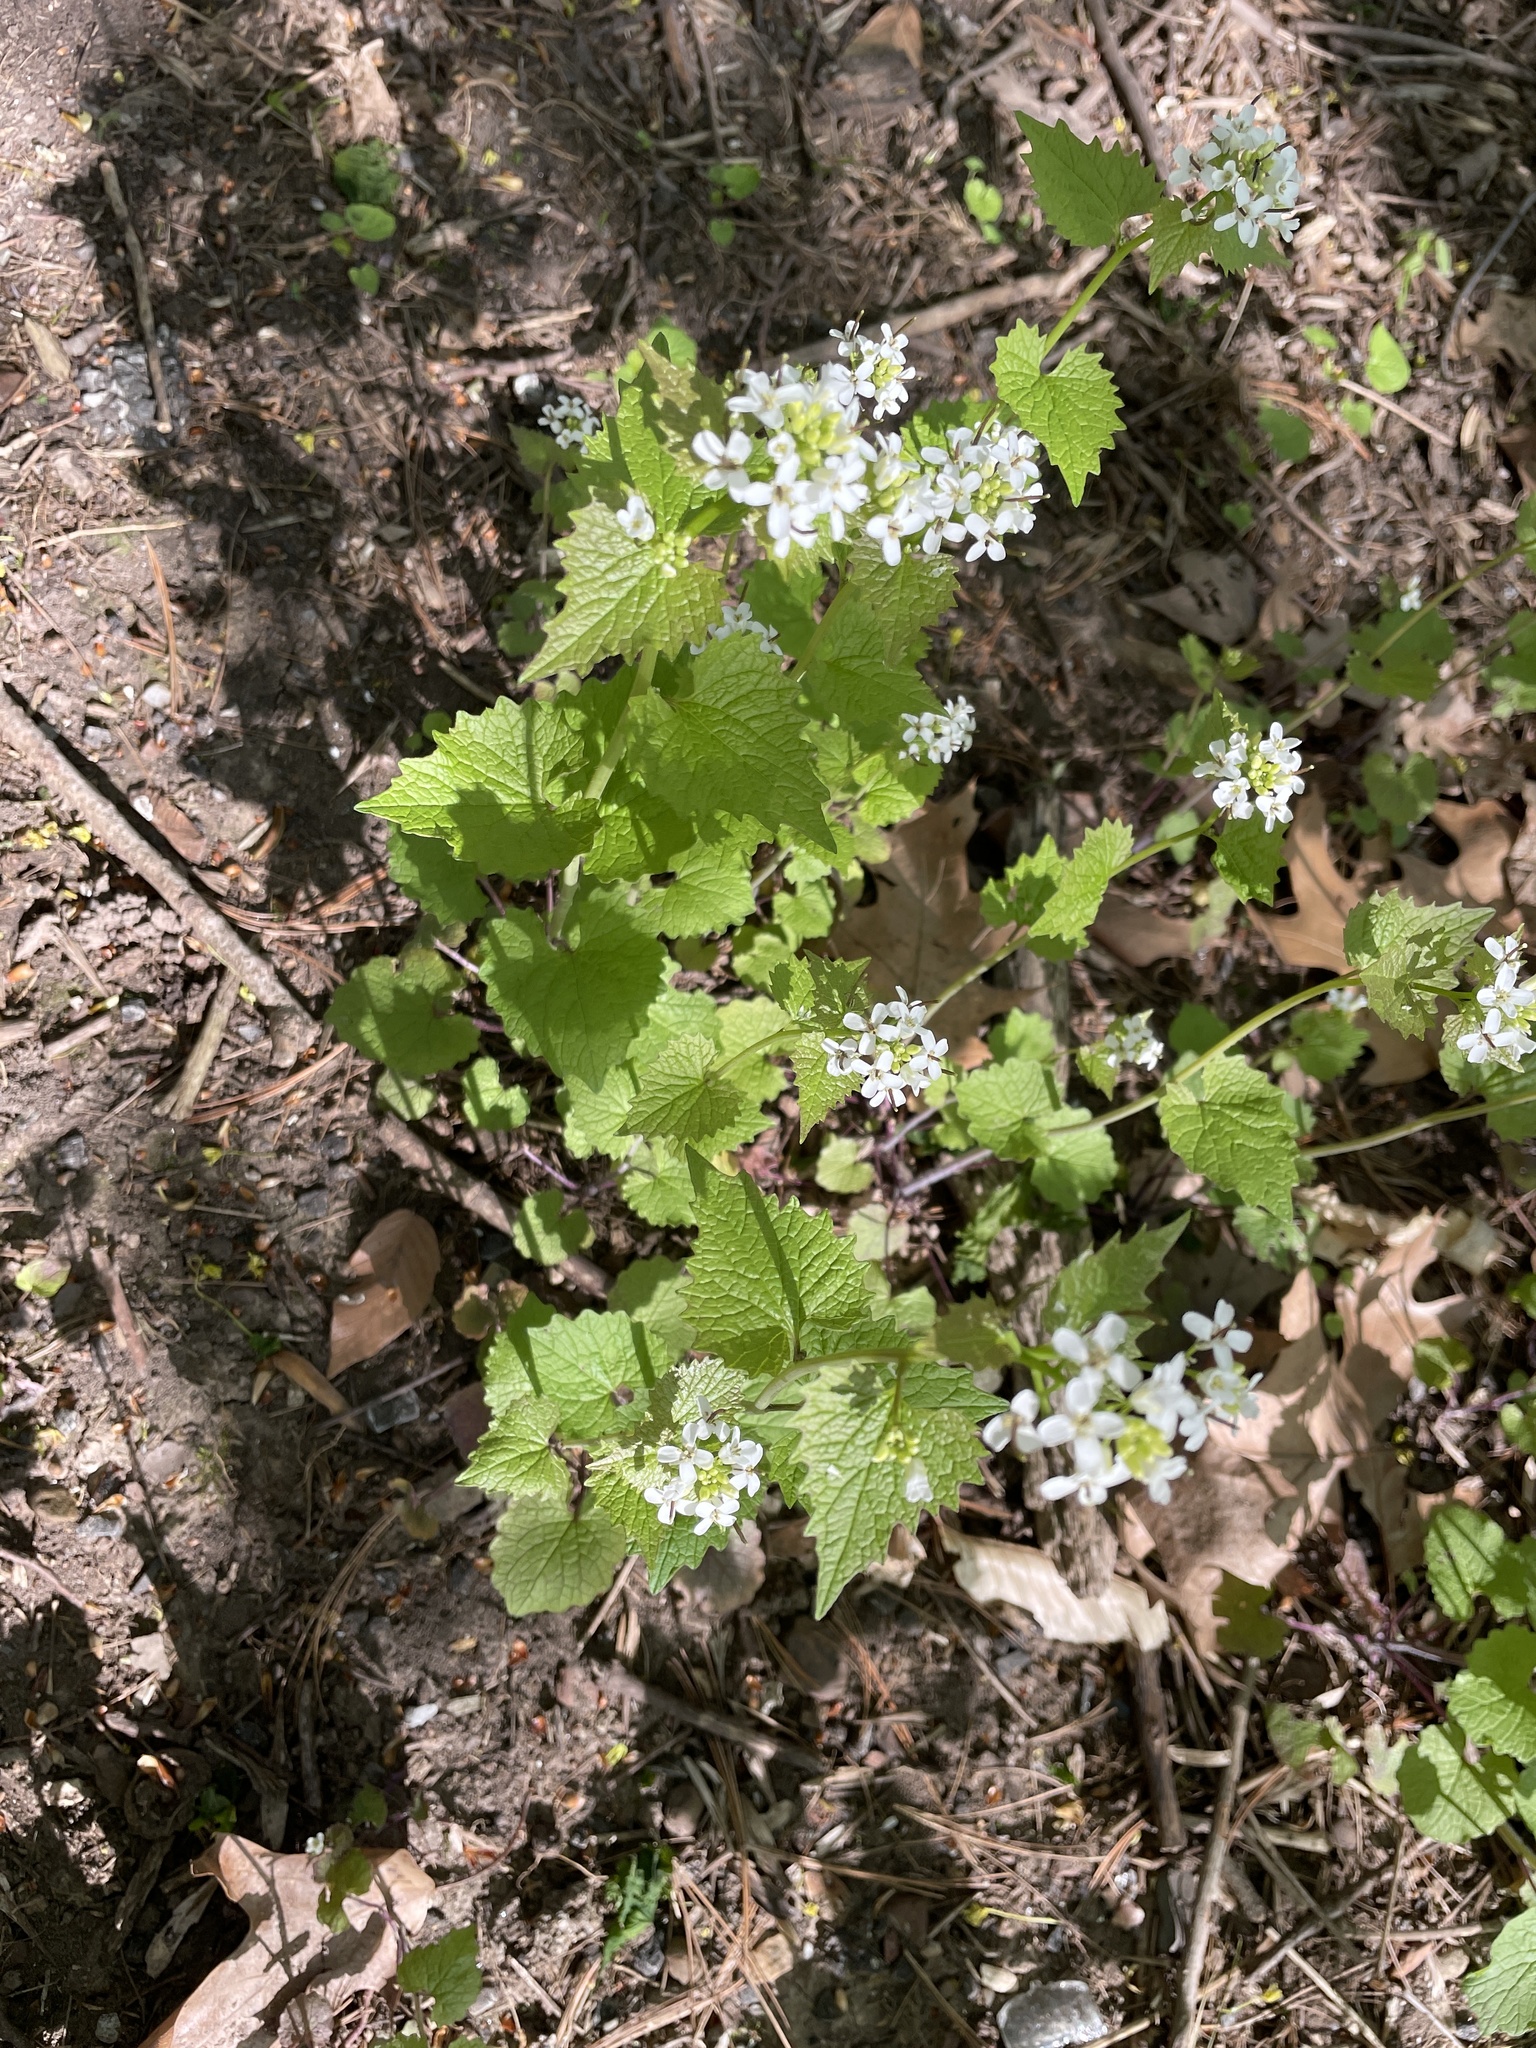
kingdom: Plantae
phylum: Tracheophyta
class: Magnoliopsida
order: Brassicales
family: Brassicaceae
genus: Alliaria
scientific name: Alliaria petiolata
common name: Garlic mustard
